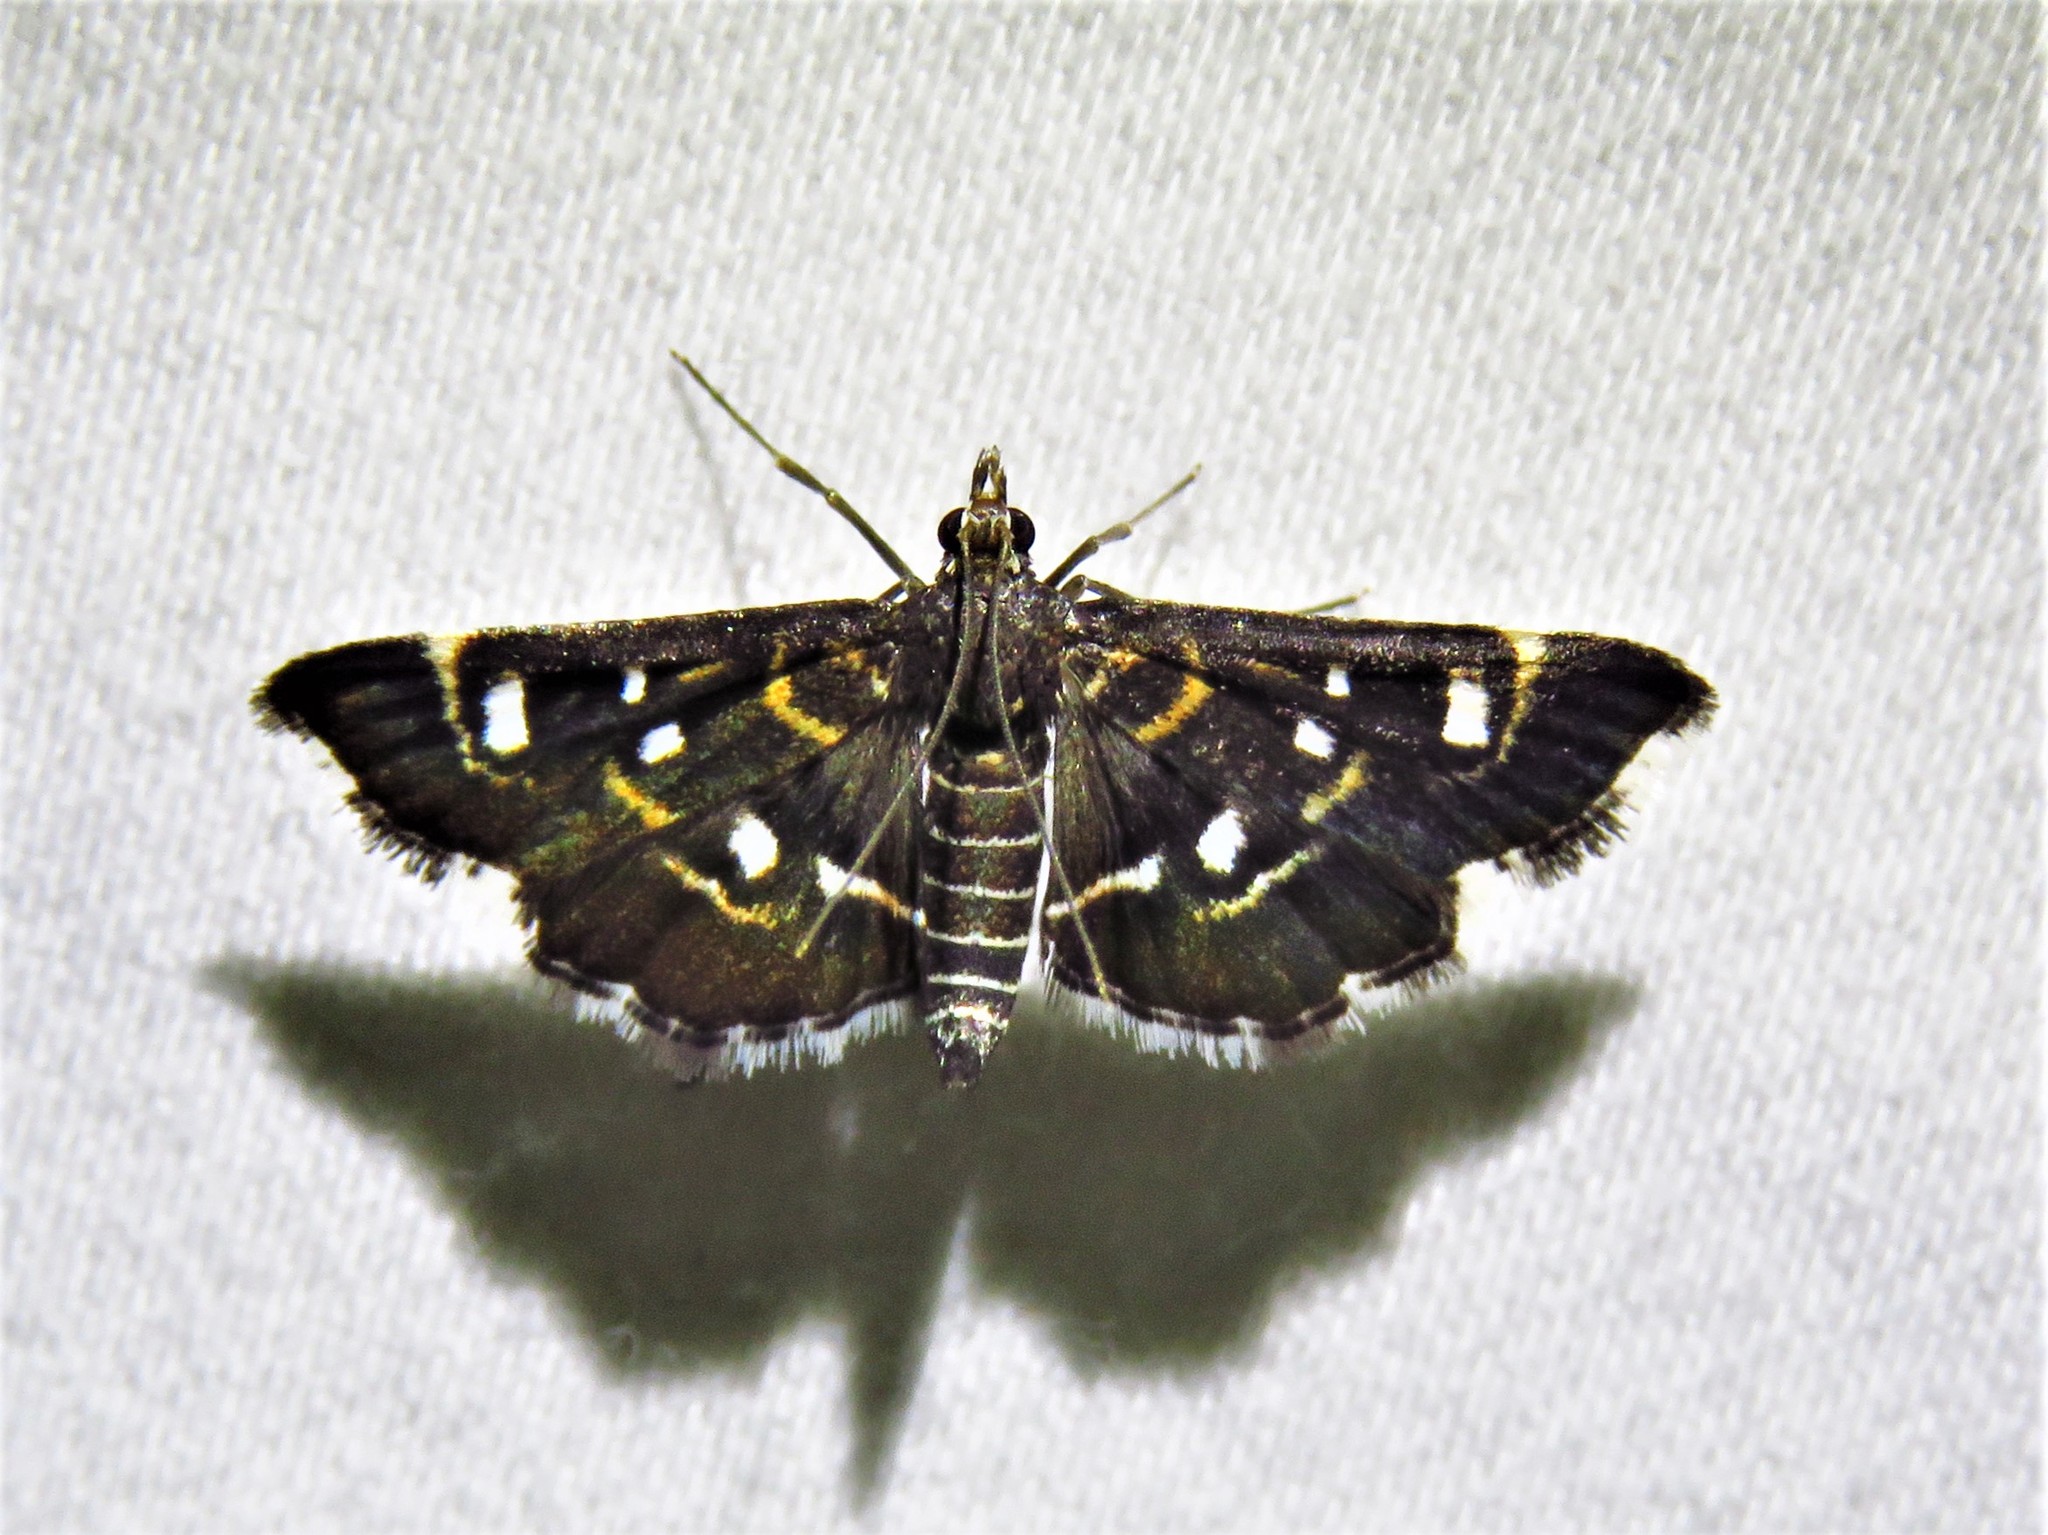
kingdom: Animalia
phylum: Arthropoda
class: Insecta
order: Lepidoptera
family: Crambidae
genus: Diathrausta
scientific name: Diathrausta harlequinalis
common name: Harlequin webworm moth
